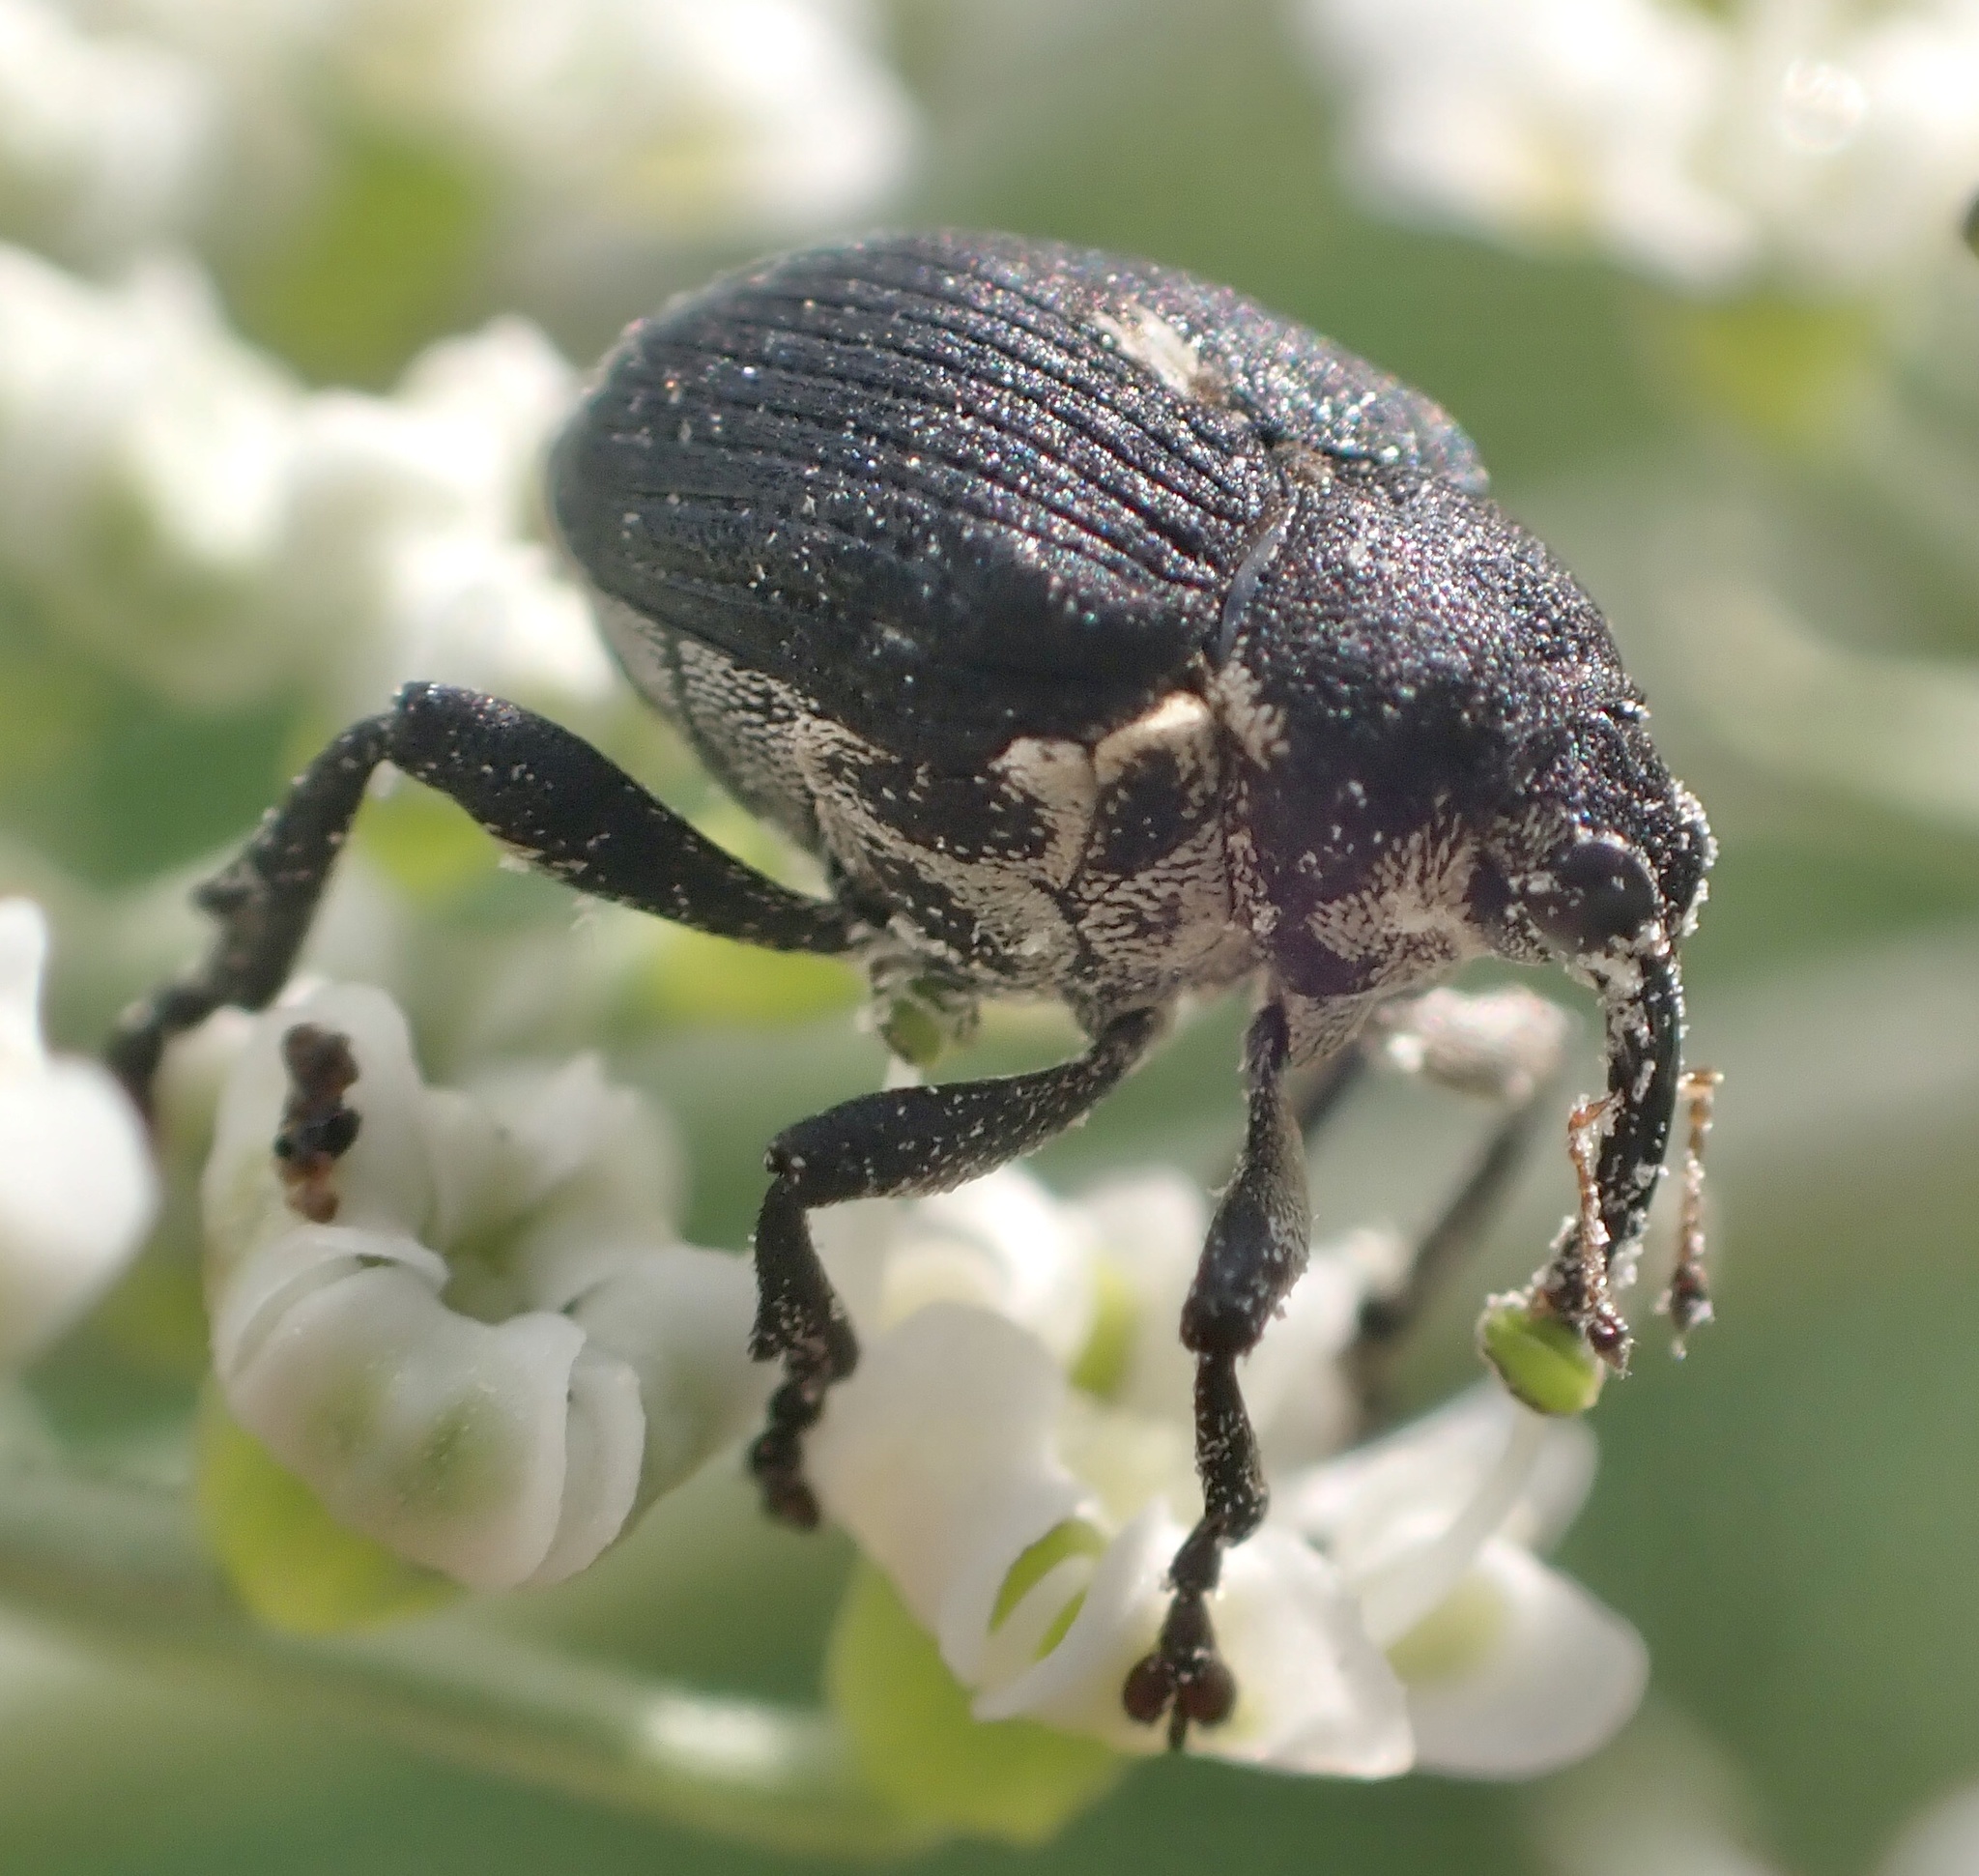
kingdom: Animalia
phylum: Arthropoda
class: Insecta
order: Coleoptera
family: Curculionidae
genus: Mononychus
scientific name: Mononychus punctumalbum
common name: Iris weevil
